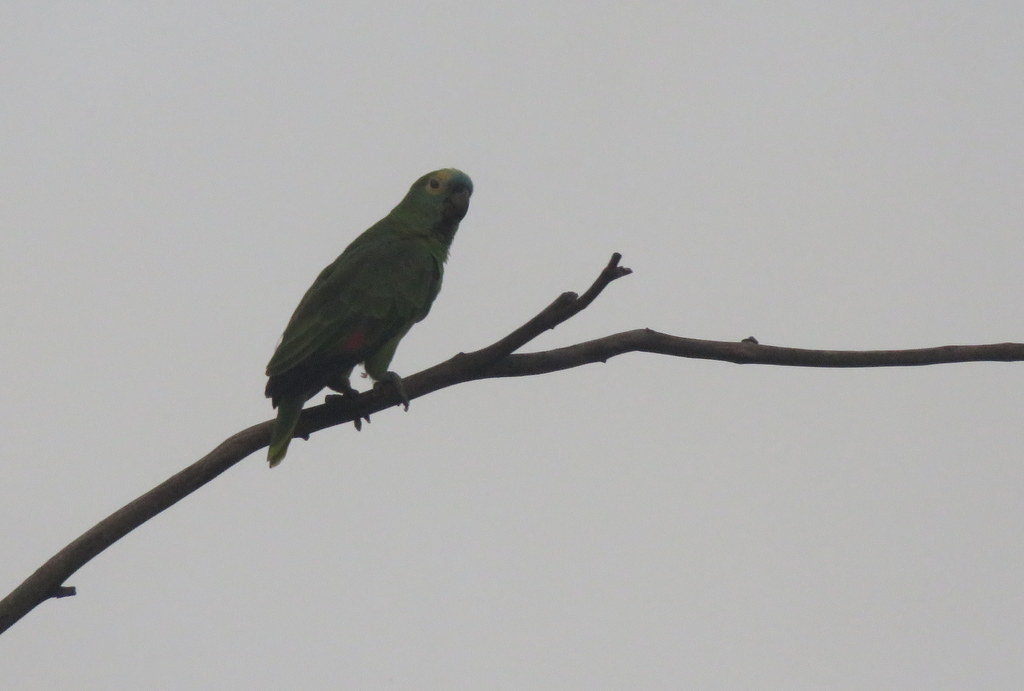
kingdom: Animalia
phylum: Chordata
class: Aves
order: Psittaciformes
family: Psittacidae
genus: Amazona
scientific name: Amazona aestiva
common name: Turquoise-fronted amazon
